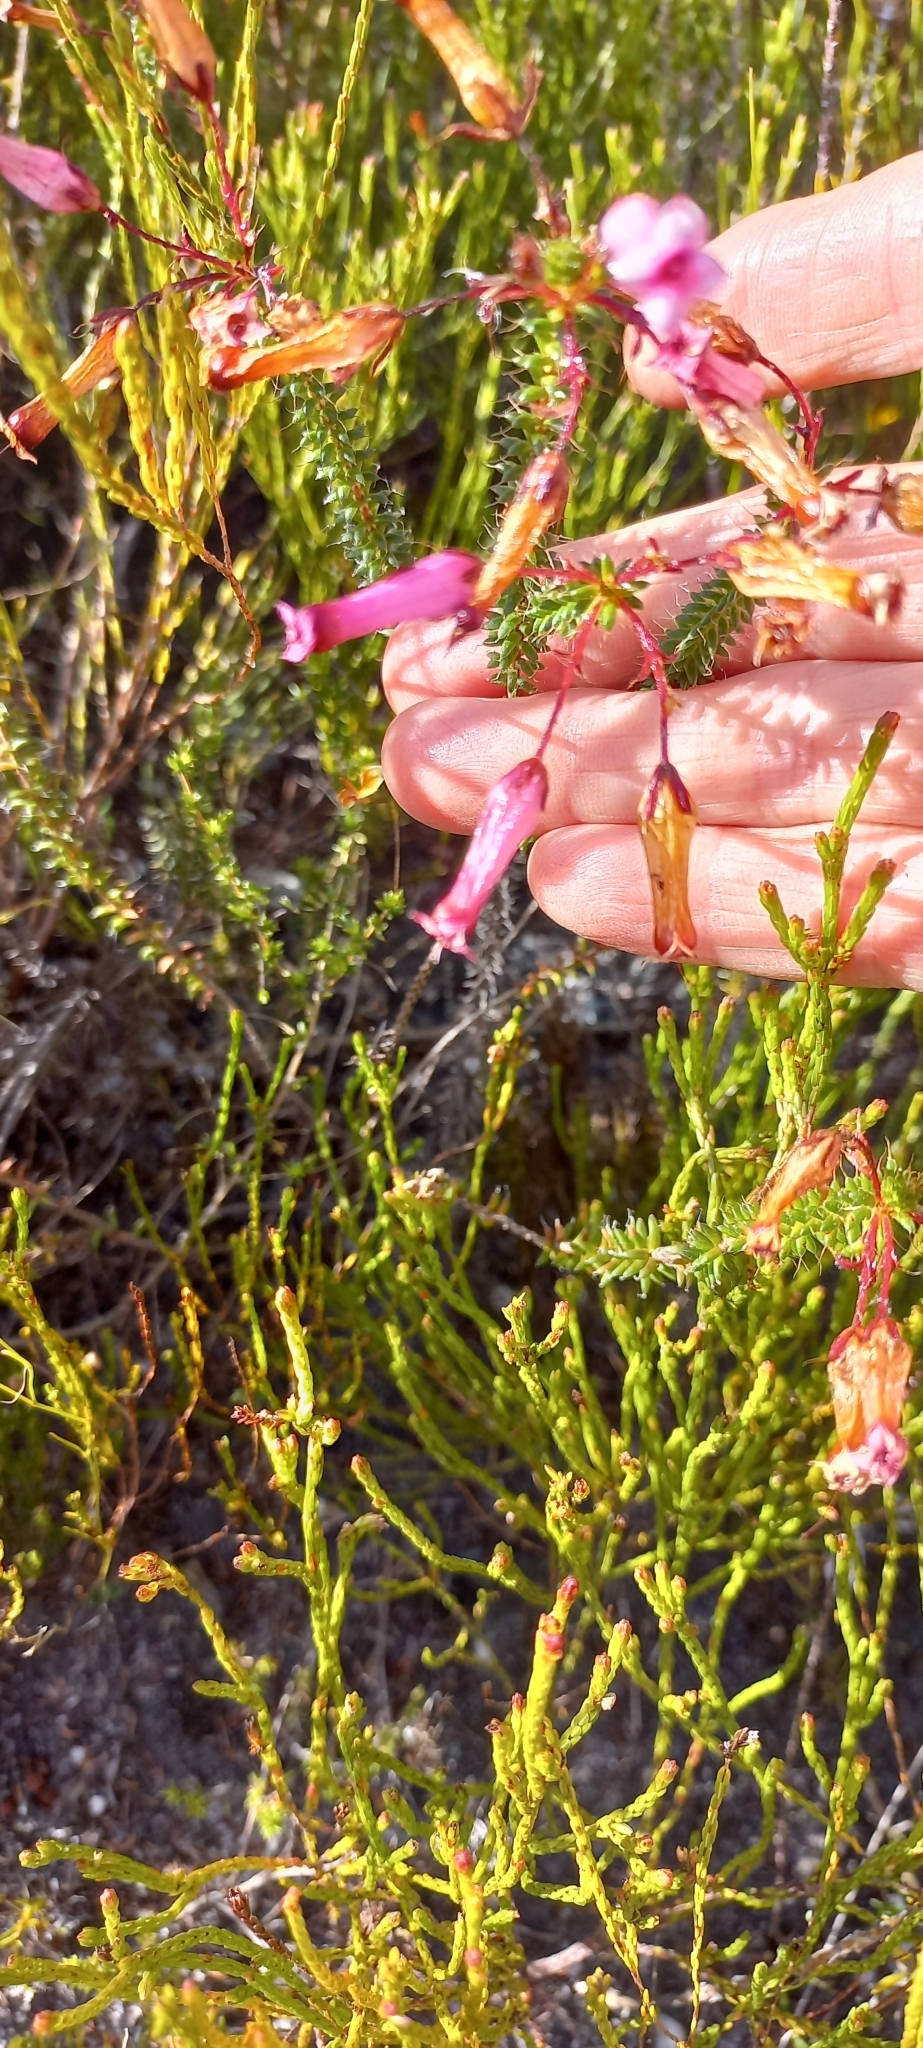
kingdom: Plantae
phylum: Tracheophyta
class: Magnoliopsida
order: Ericales
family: Ericaceae
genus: Erica
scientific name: Erica retorta
